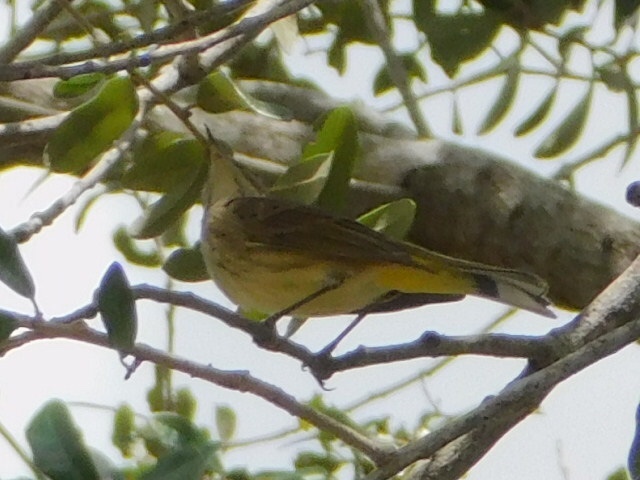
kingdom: Animalia
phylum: Chordata
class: Aves
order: Passeriformes
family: Parulidae
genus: Setophaga
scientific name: Setophaga palmarum
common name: Palm warbler
